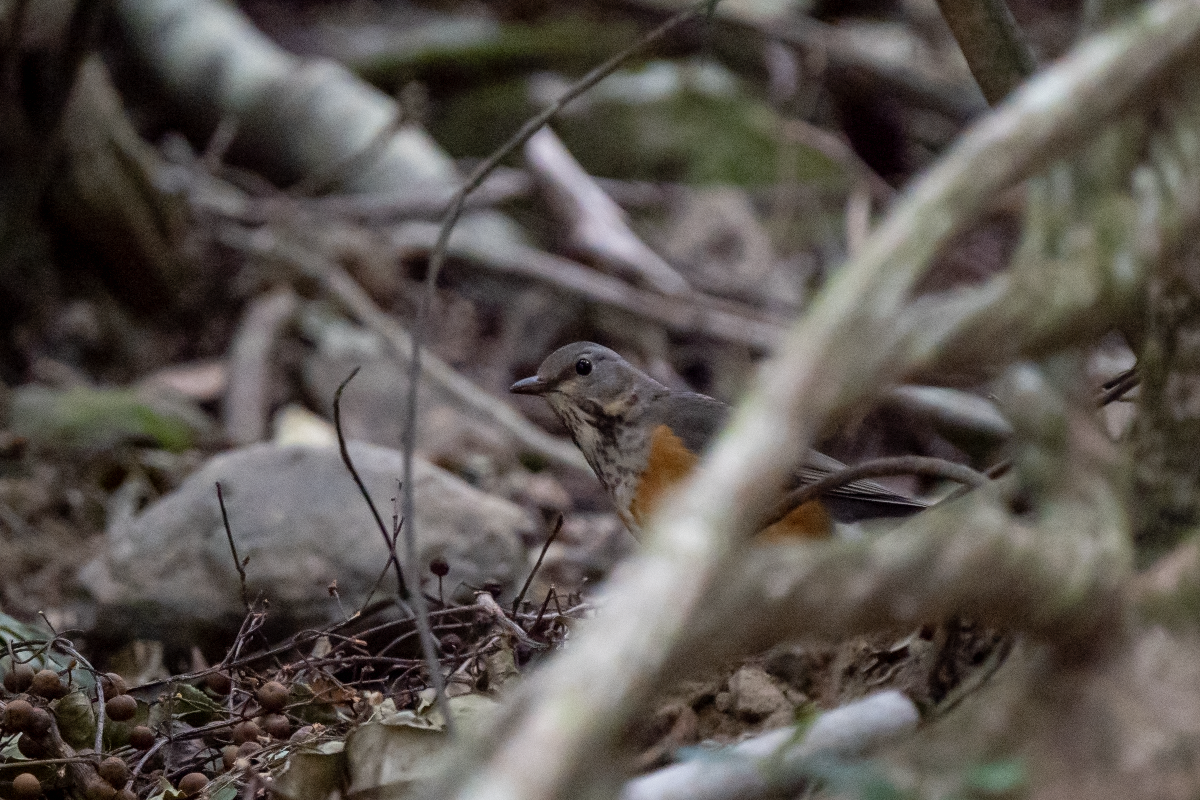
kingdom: Animalia
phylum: Chordata
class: Aves
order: Passeriformes
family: Turdidae
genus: Turdus
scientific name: Turdus hortulorum
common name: Grey-backed thrush
